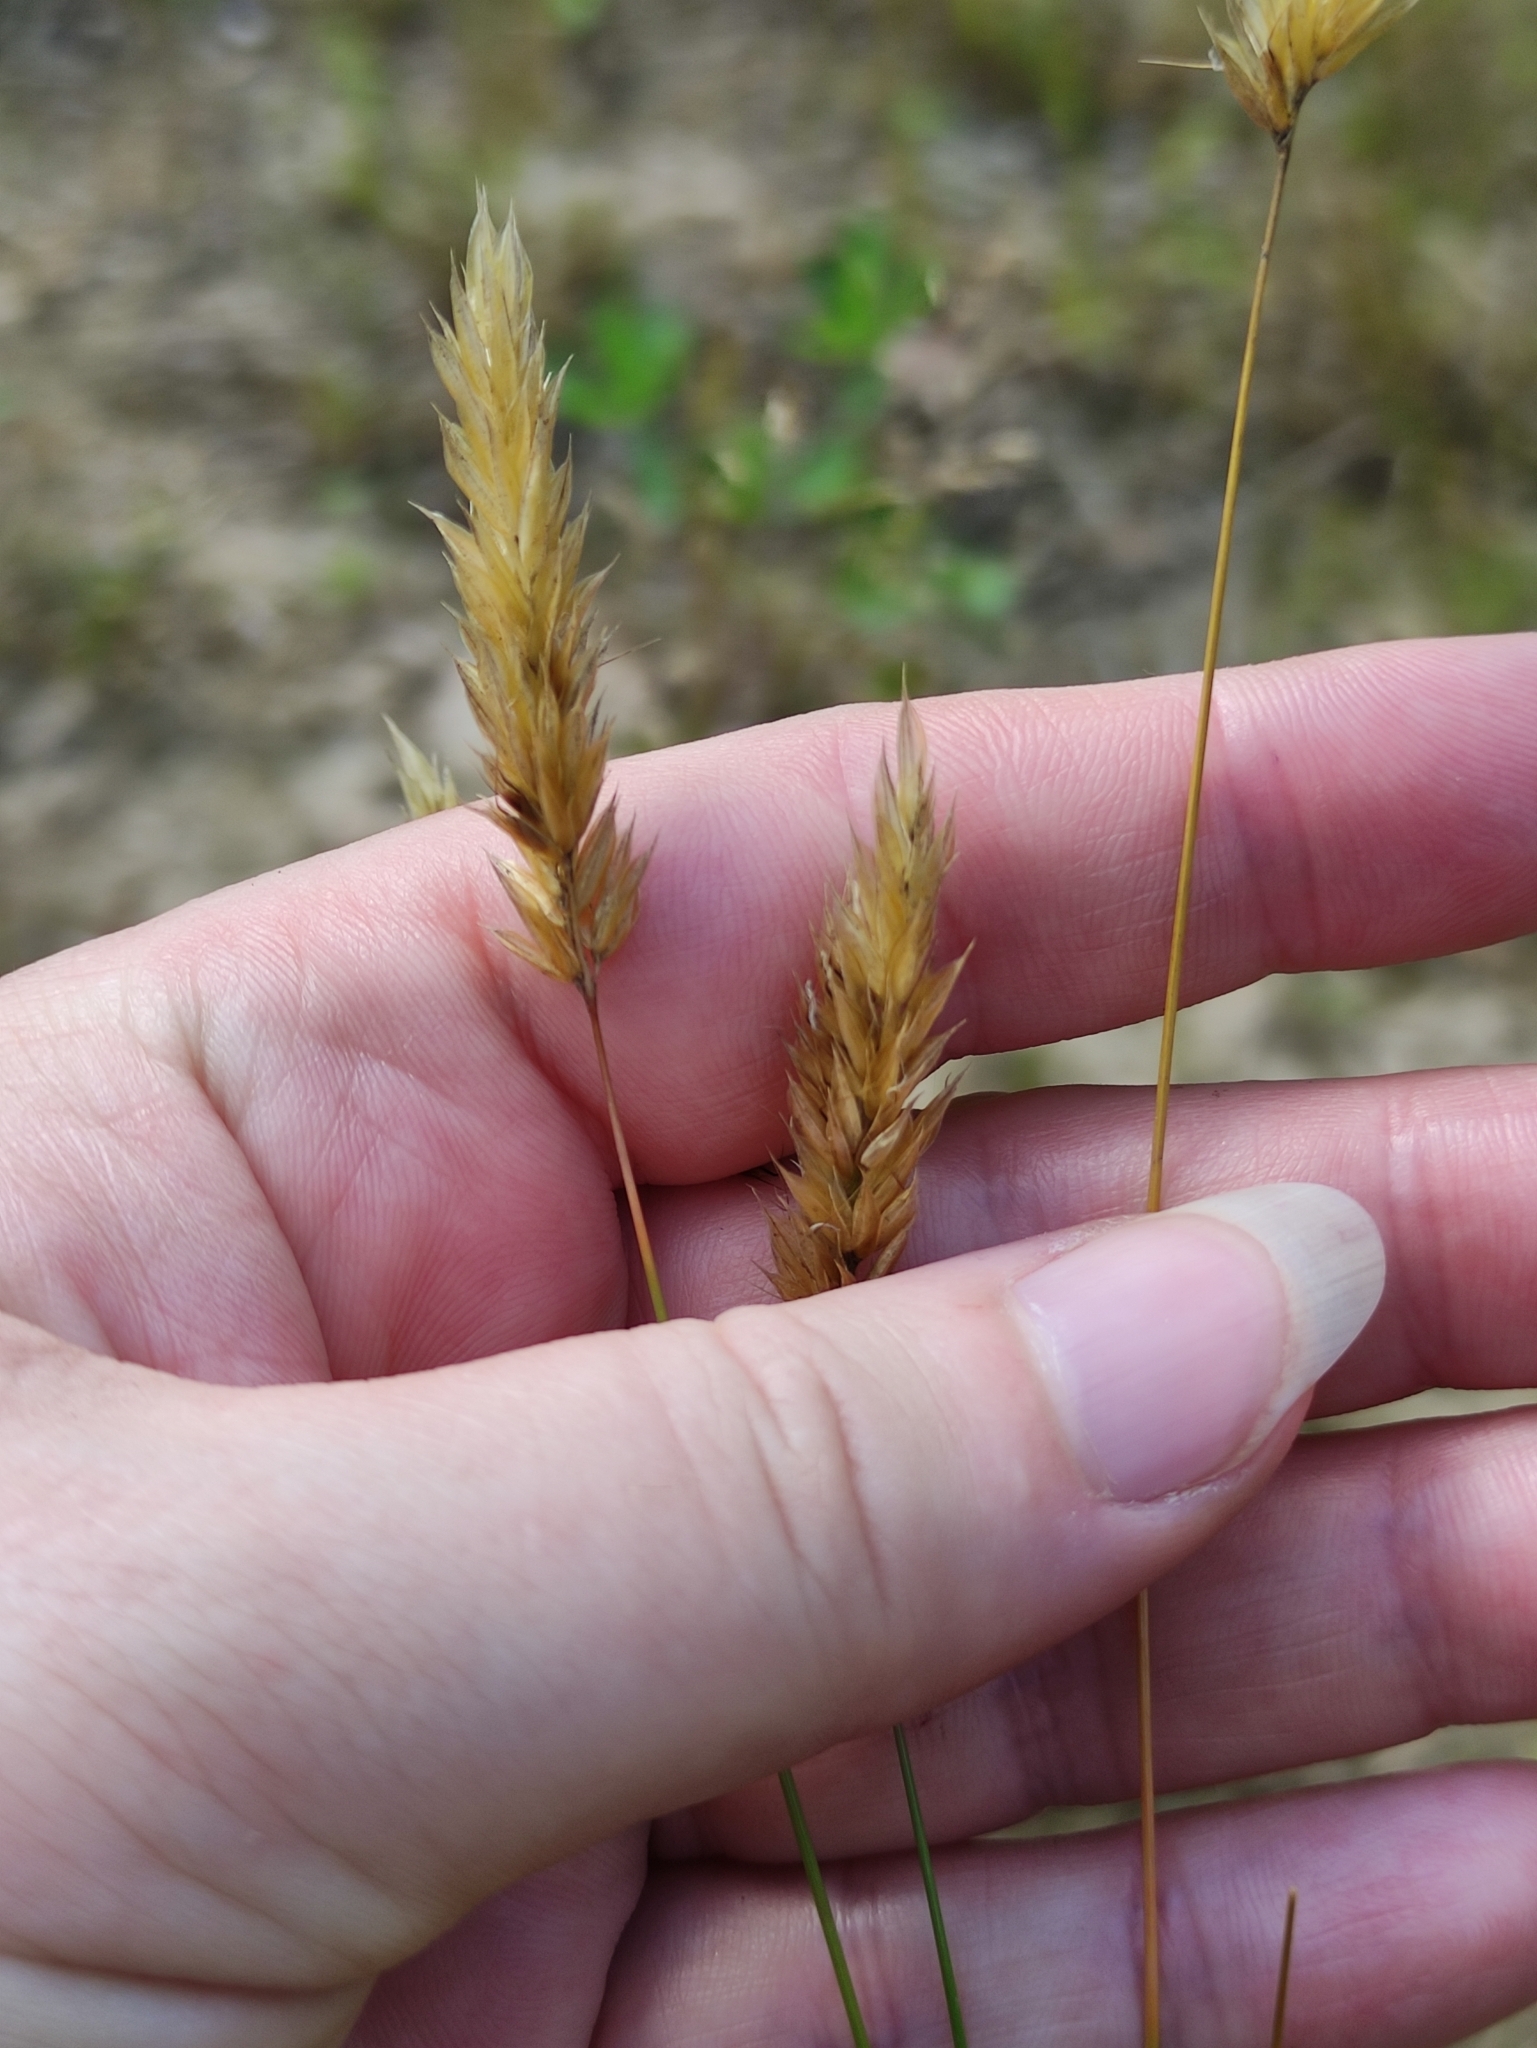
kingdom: Plantae
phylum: Tracheophyta
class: Liliopsida
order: Poales
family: Poaceae
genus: Anthoxanthum
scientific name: Anthoxanthum odoratum
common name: Sweet vernalgrass
